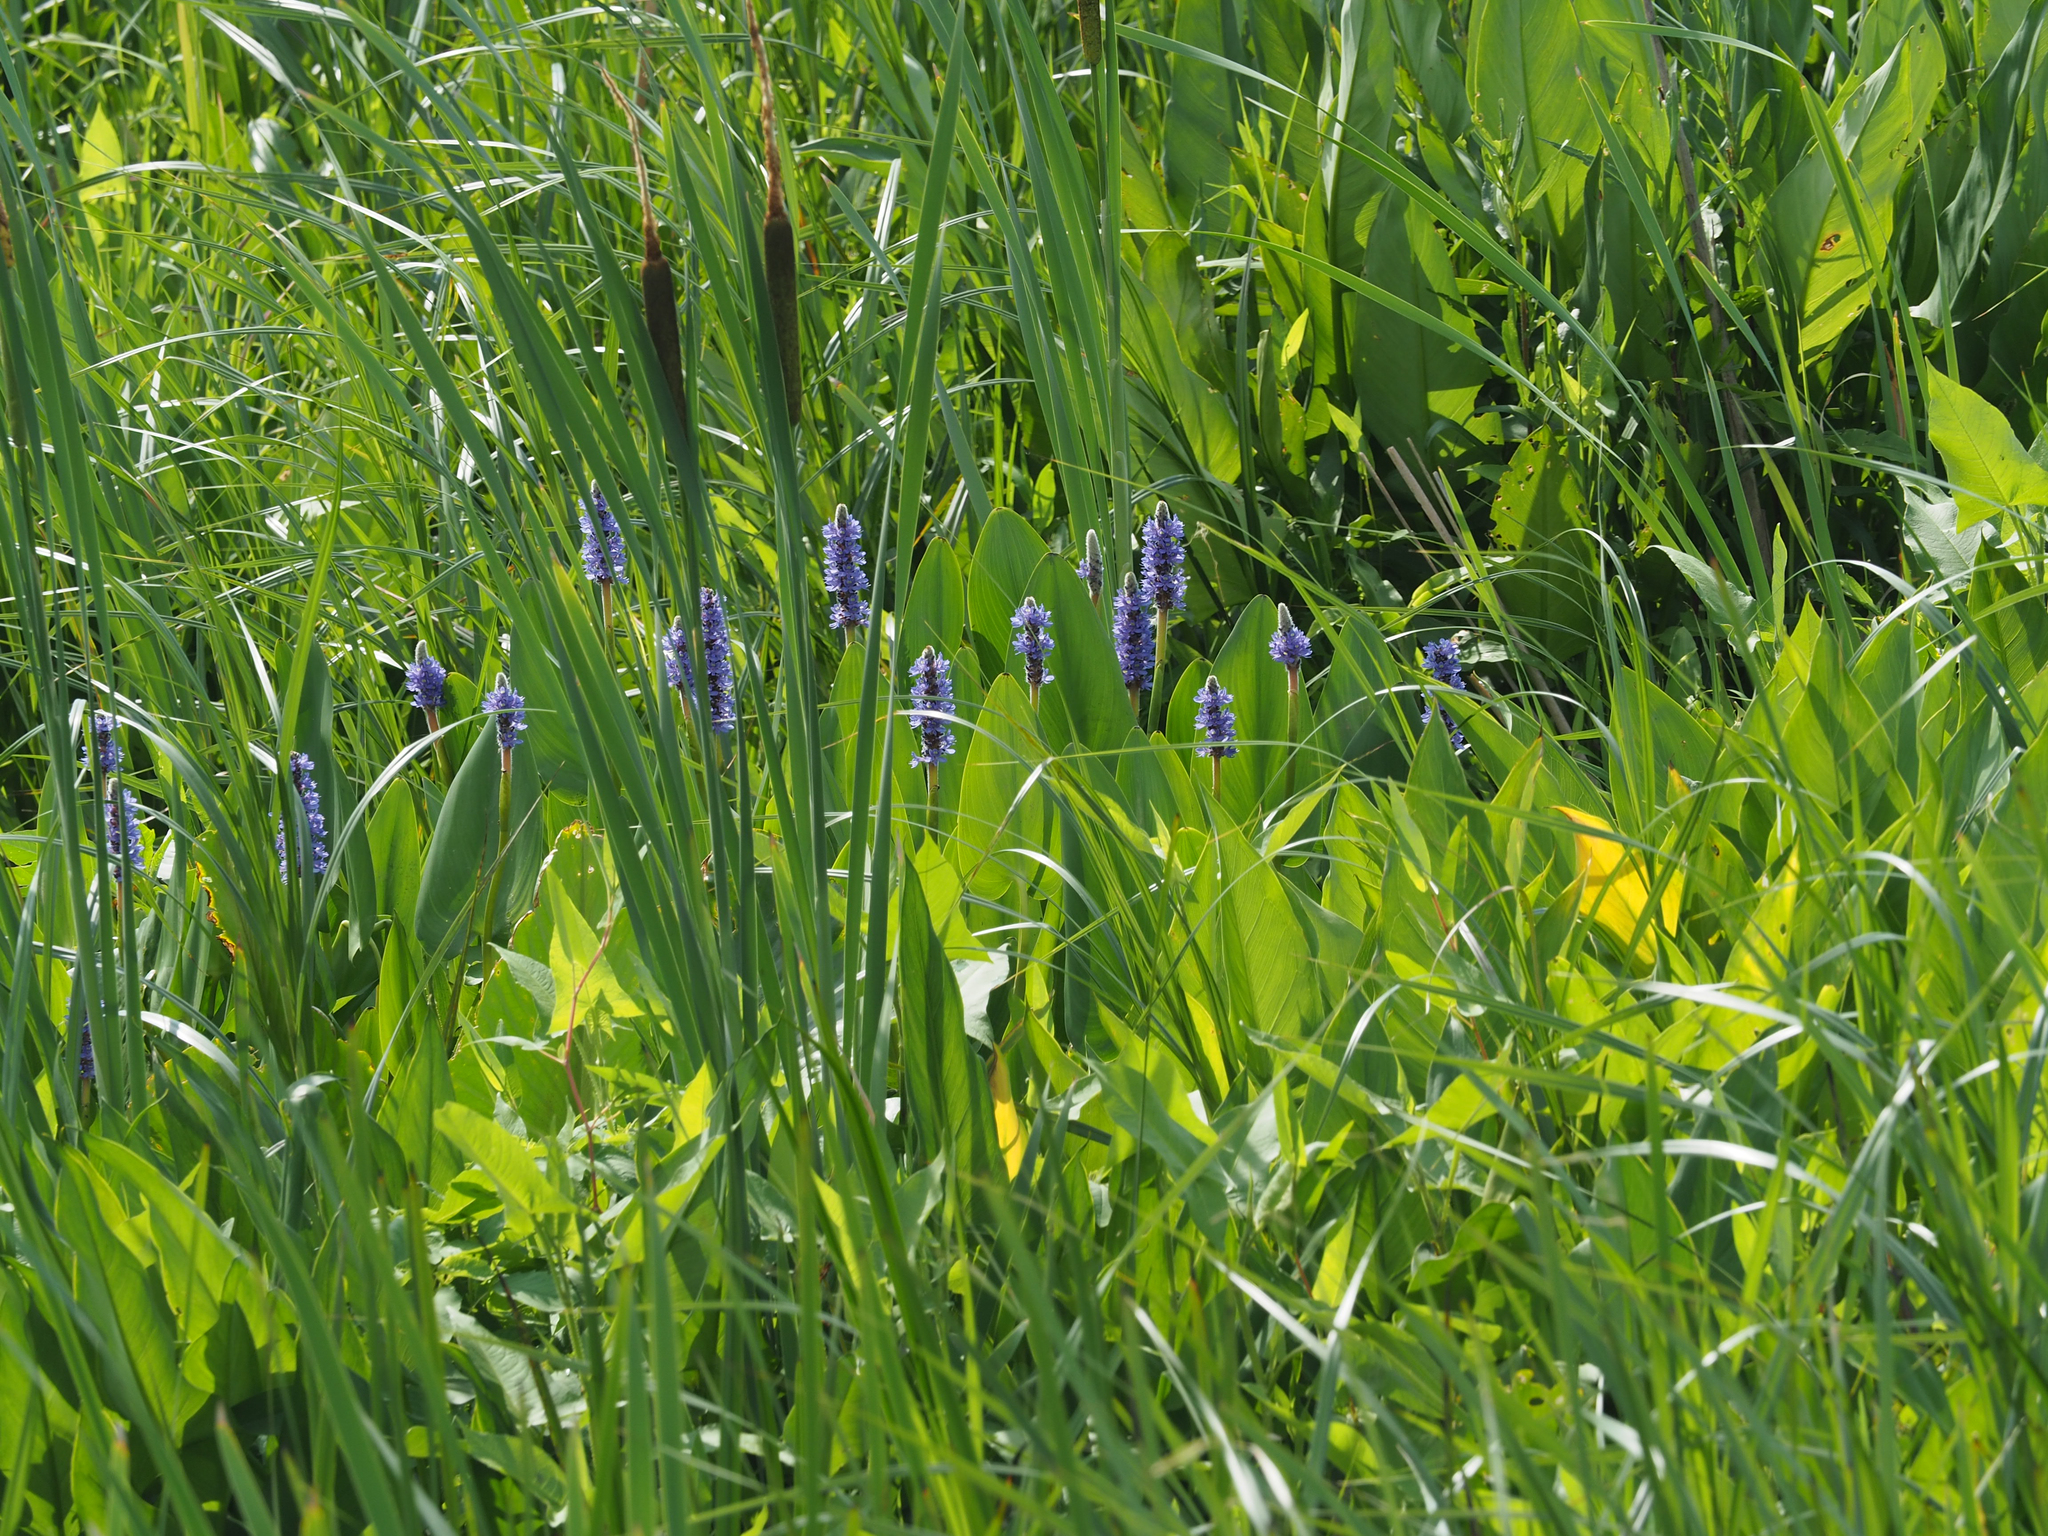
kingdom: Plantae
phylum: Tracheophyta
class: Liliopsida
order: Commelinales
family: Pontederiaceae
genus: Pontederia
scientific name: Pontederia cordata
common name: Pickerelweed
